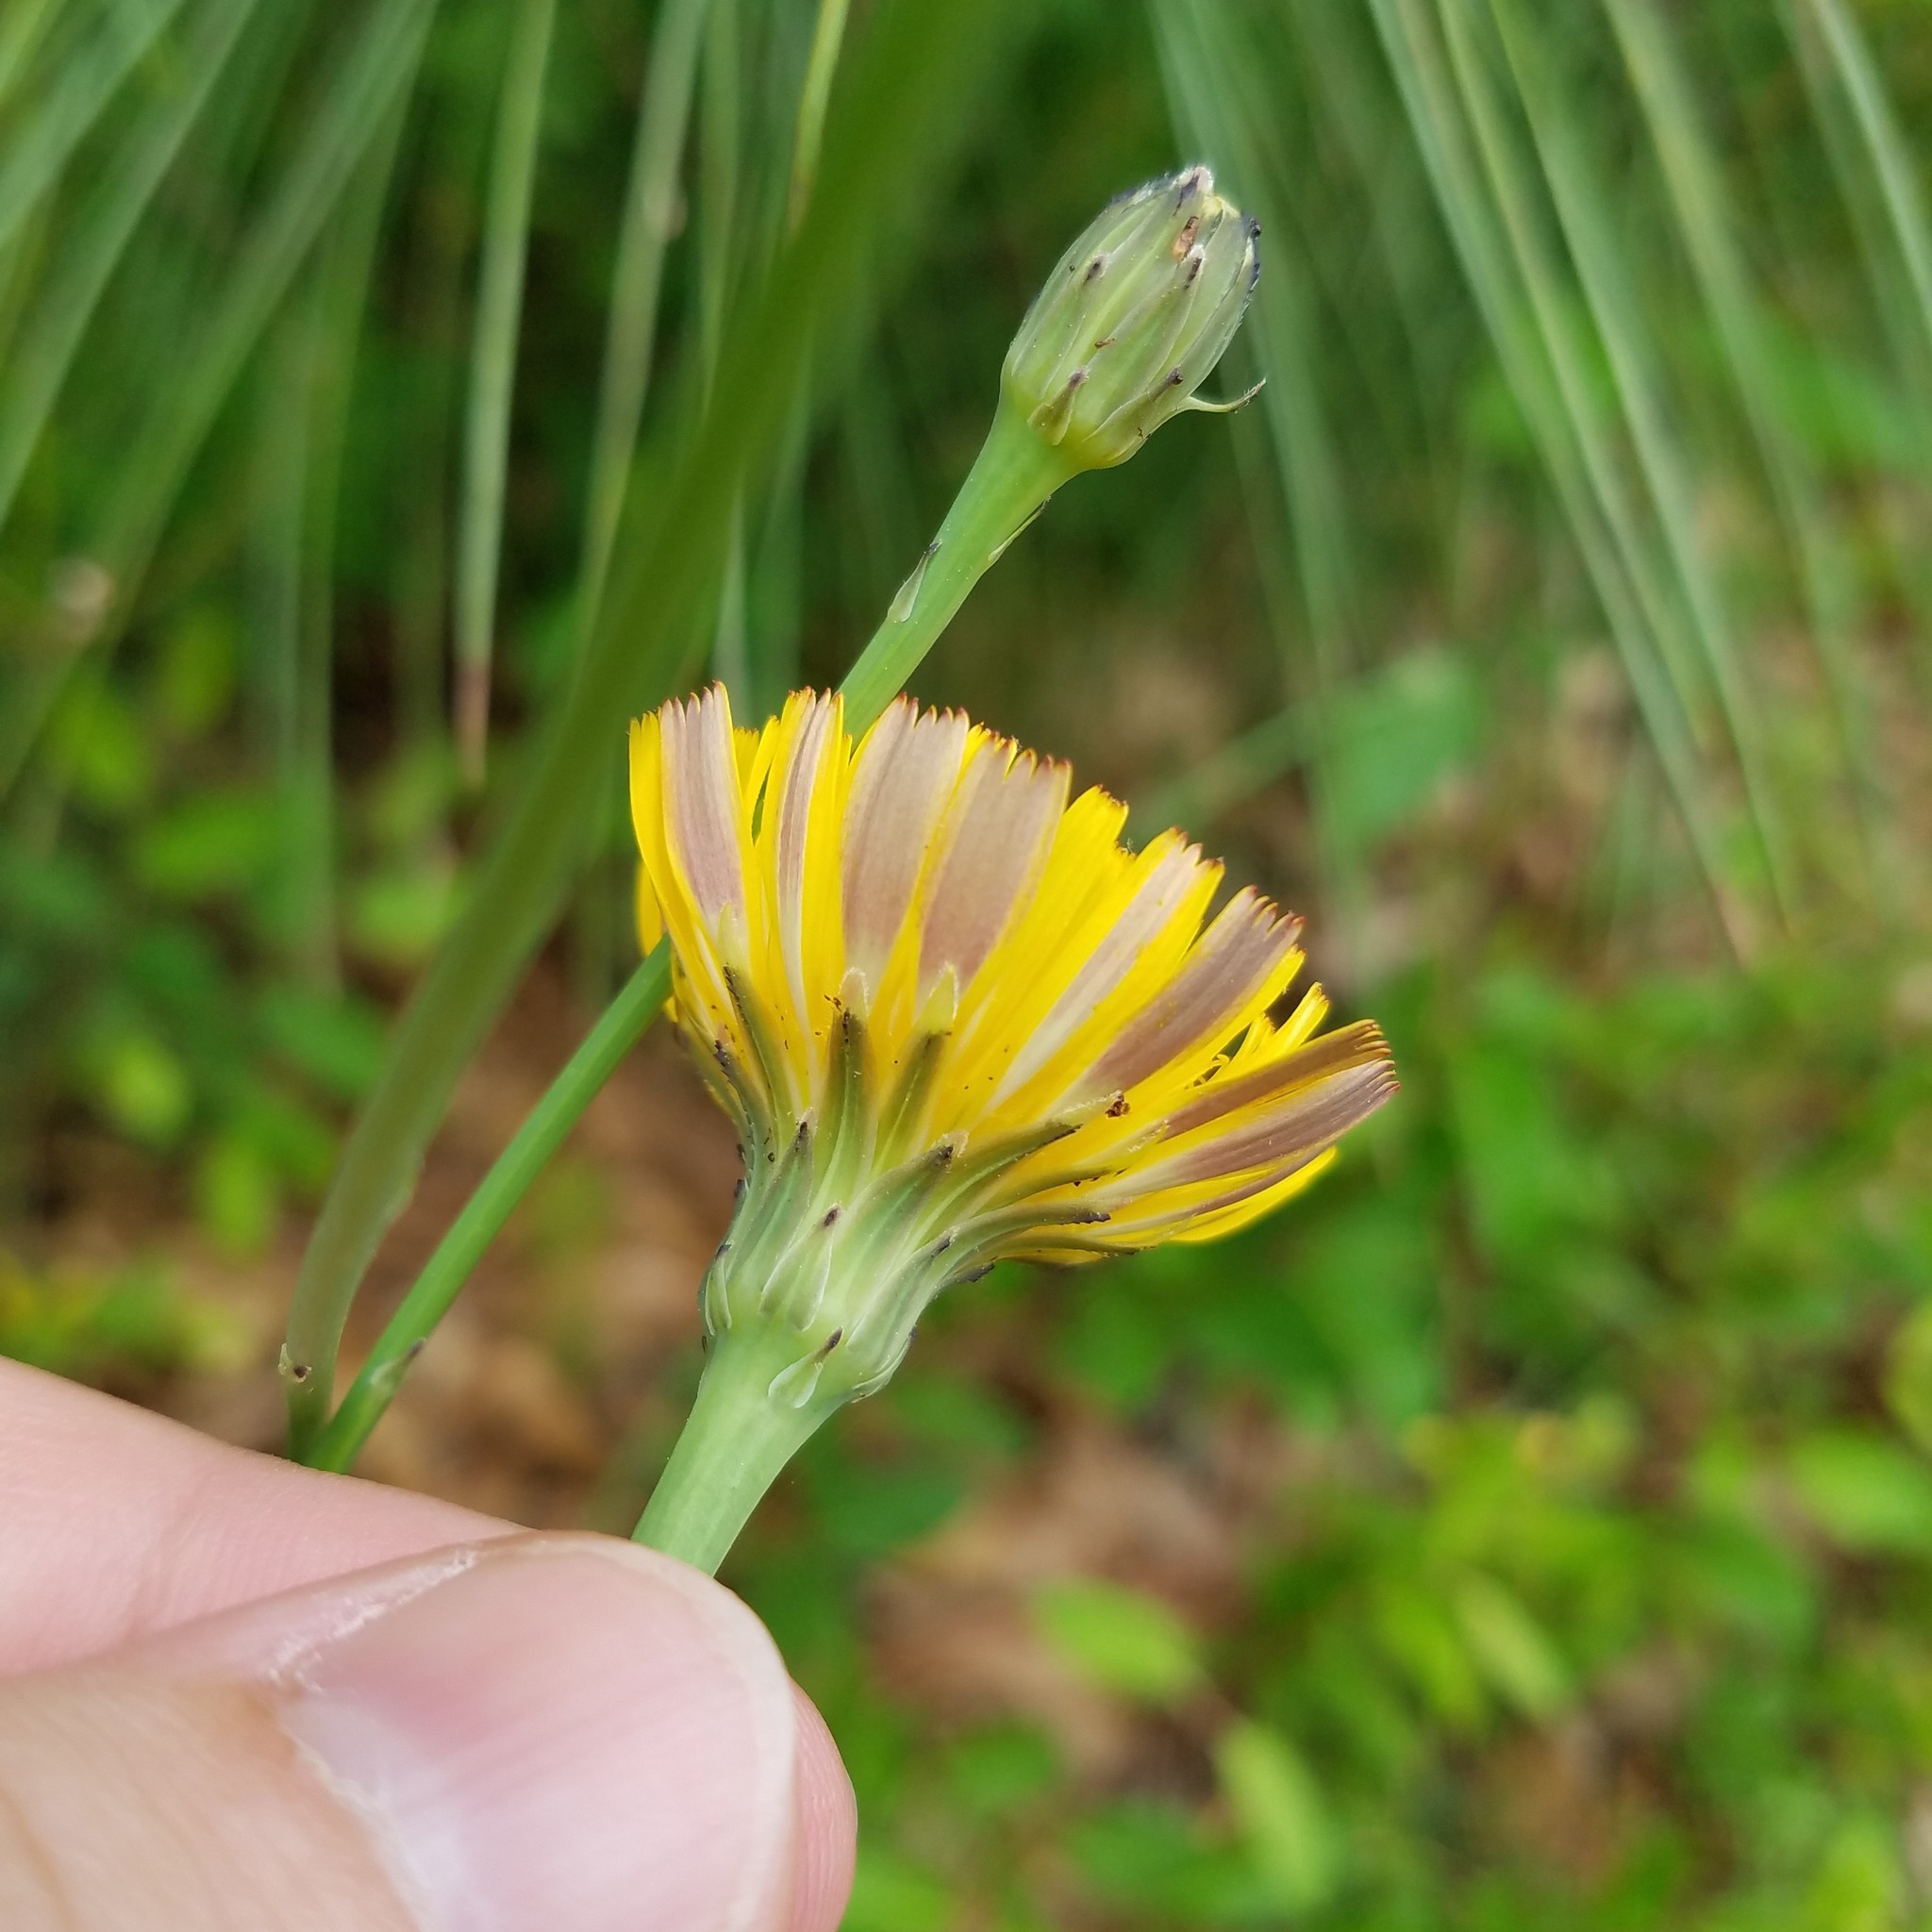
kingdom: Plantae
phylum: Tracheophyta
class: Magnoliopsida
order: Asterales
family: Asteraceae
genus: Hypochaeris
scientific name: Hypochaeris radicata
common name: Flatweed
